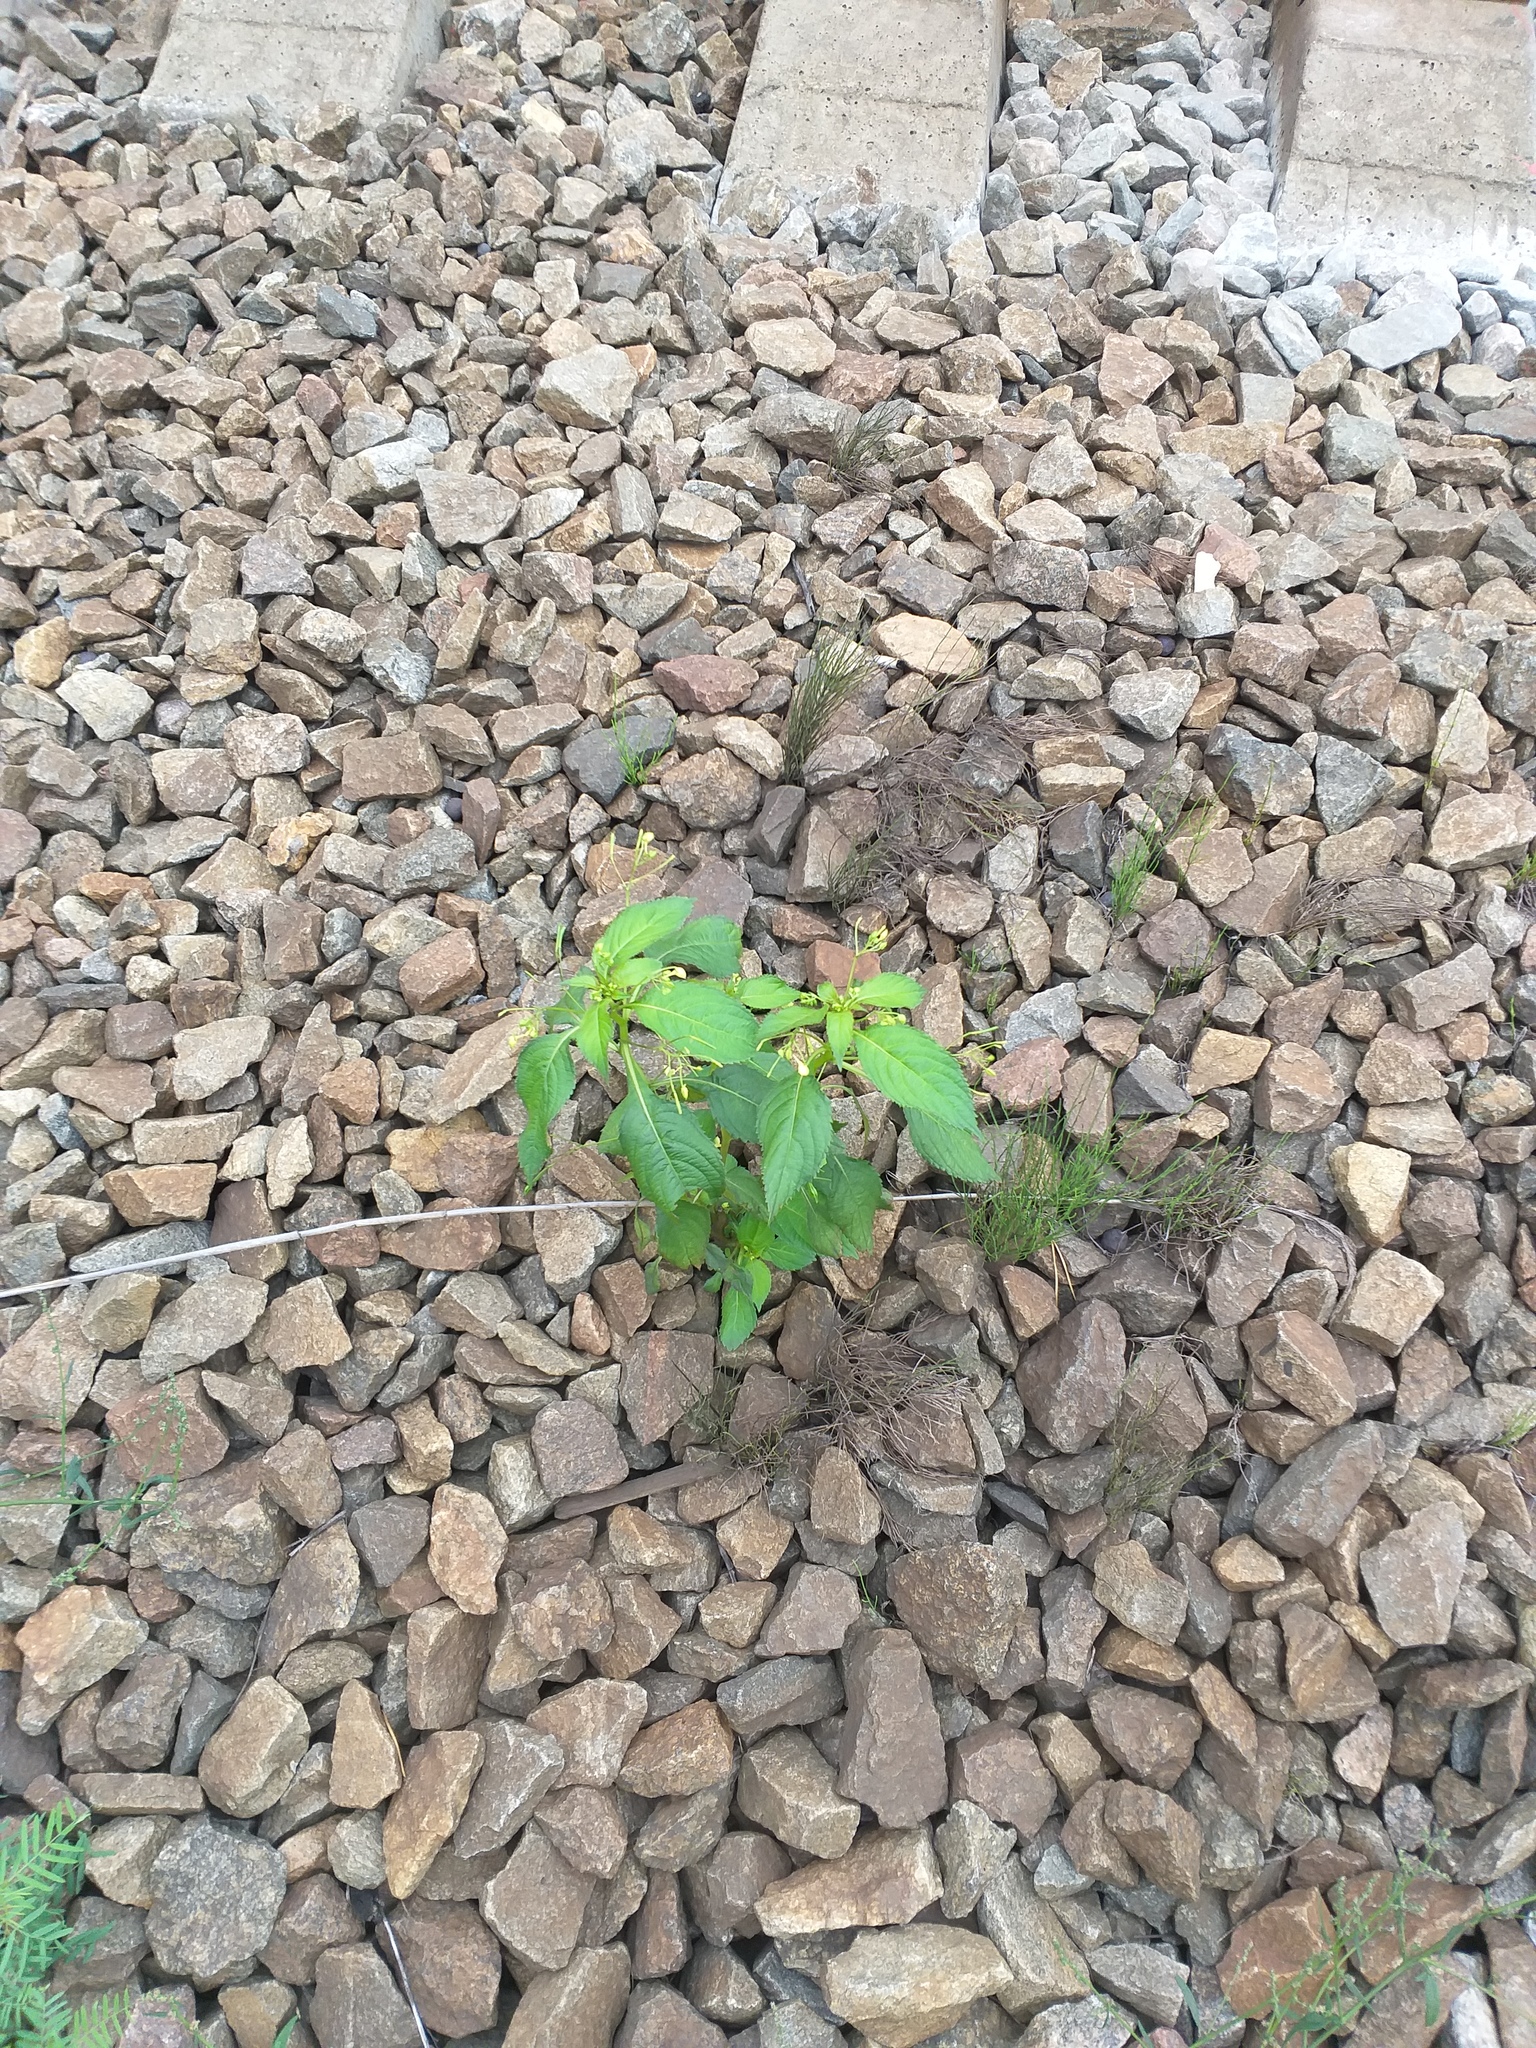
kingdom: Plantae
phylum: Tracheophyta
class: Magnoliopsida
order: Ericales
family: Balsaminaceae
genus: Impatiens
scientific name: Impatiens parviflora
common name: Small balsam
